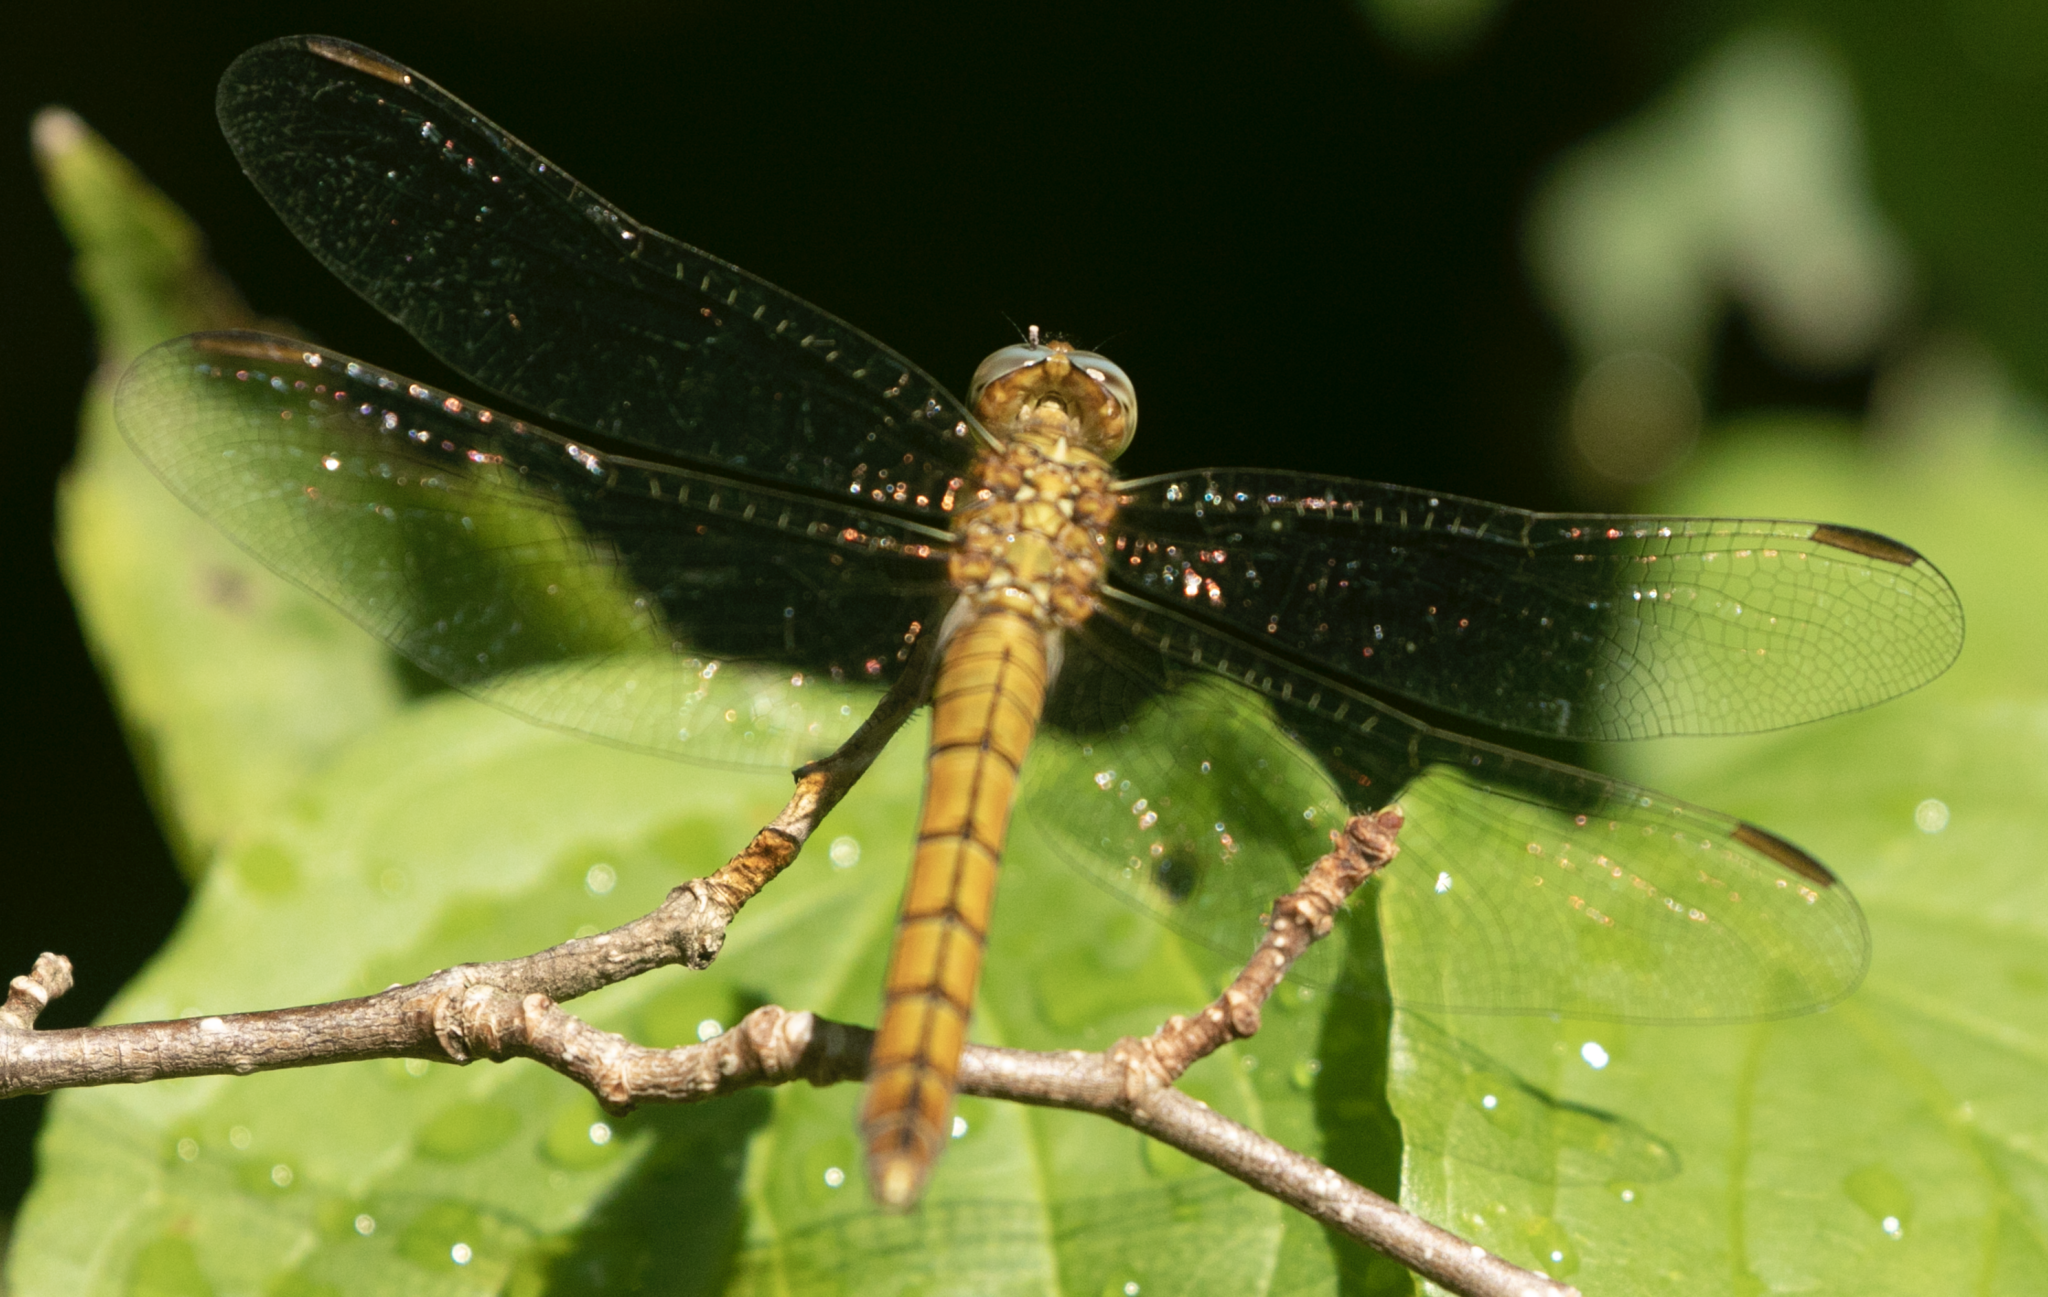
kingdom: Animalia
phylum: Arthropoda
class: Insecta
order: Odonata
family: Libellulidae
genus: Orthetrum
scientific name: Orthetrum coerulescens
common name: Keeled skimmer
